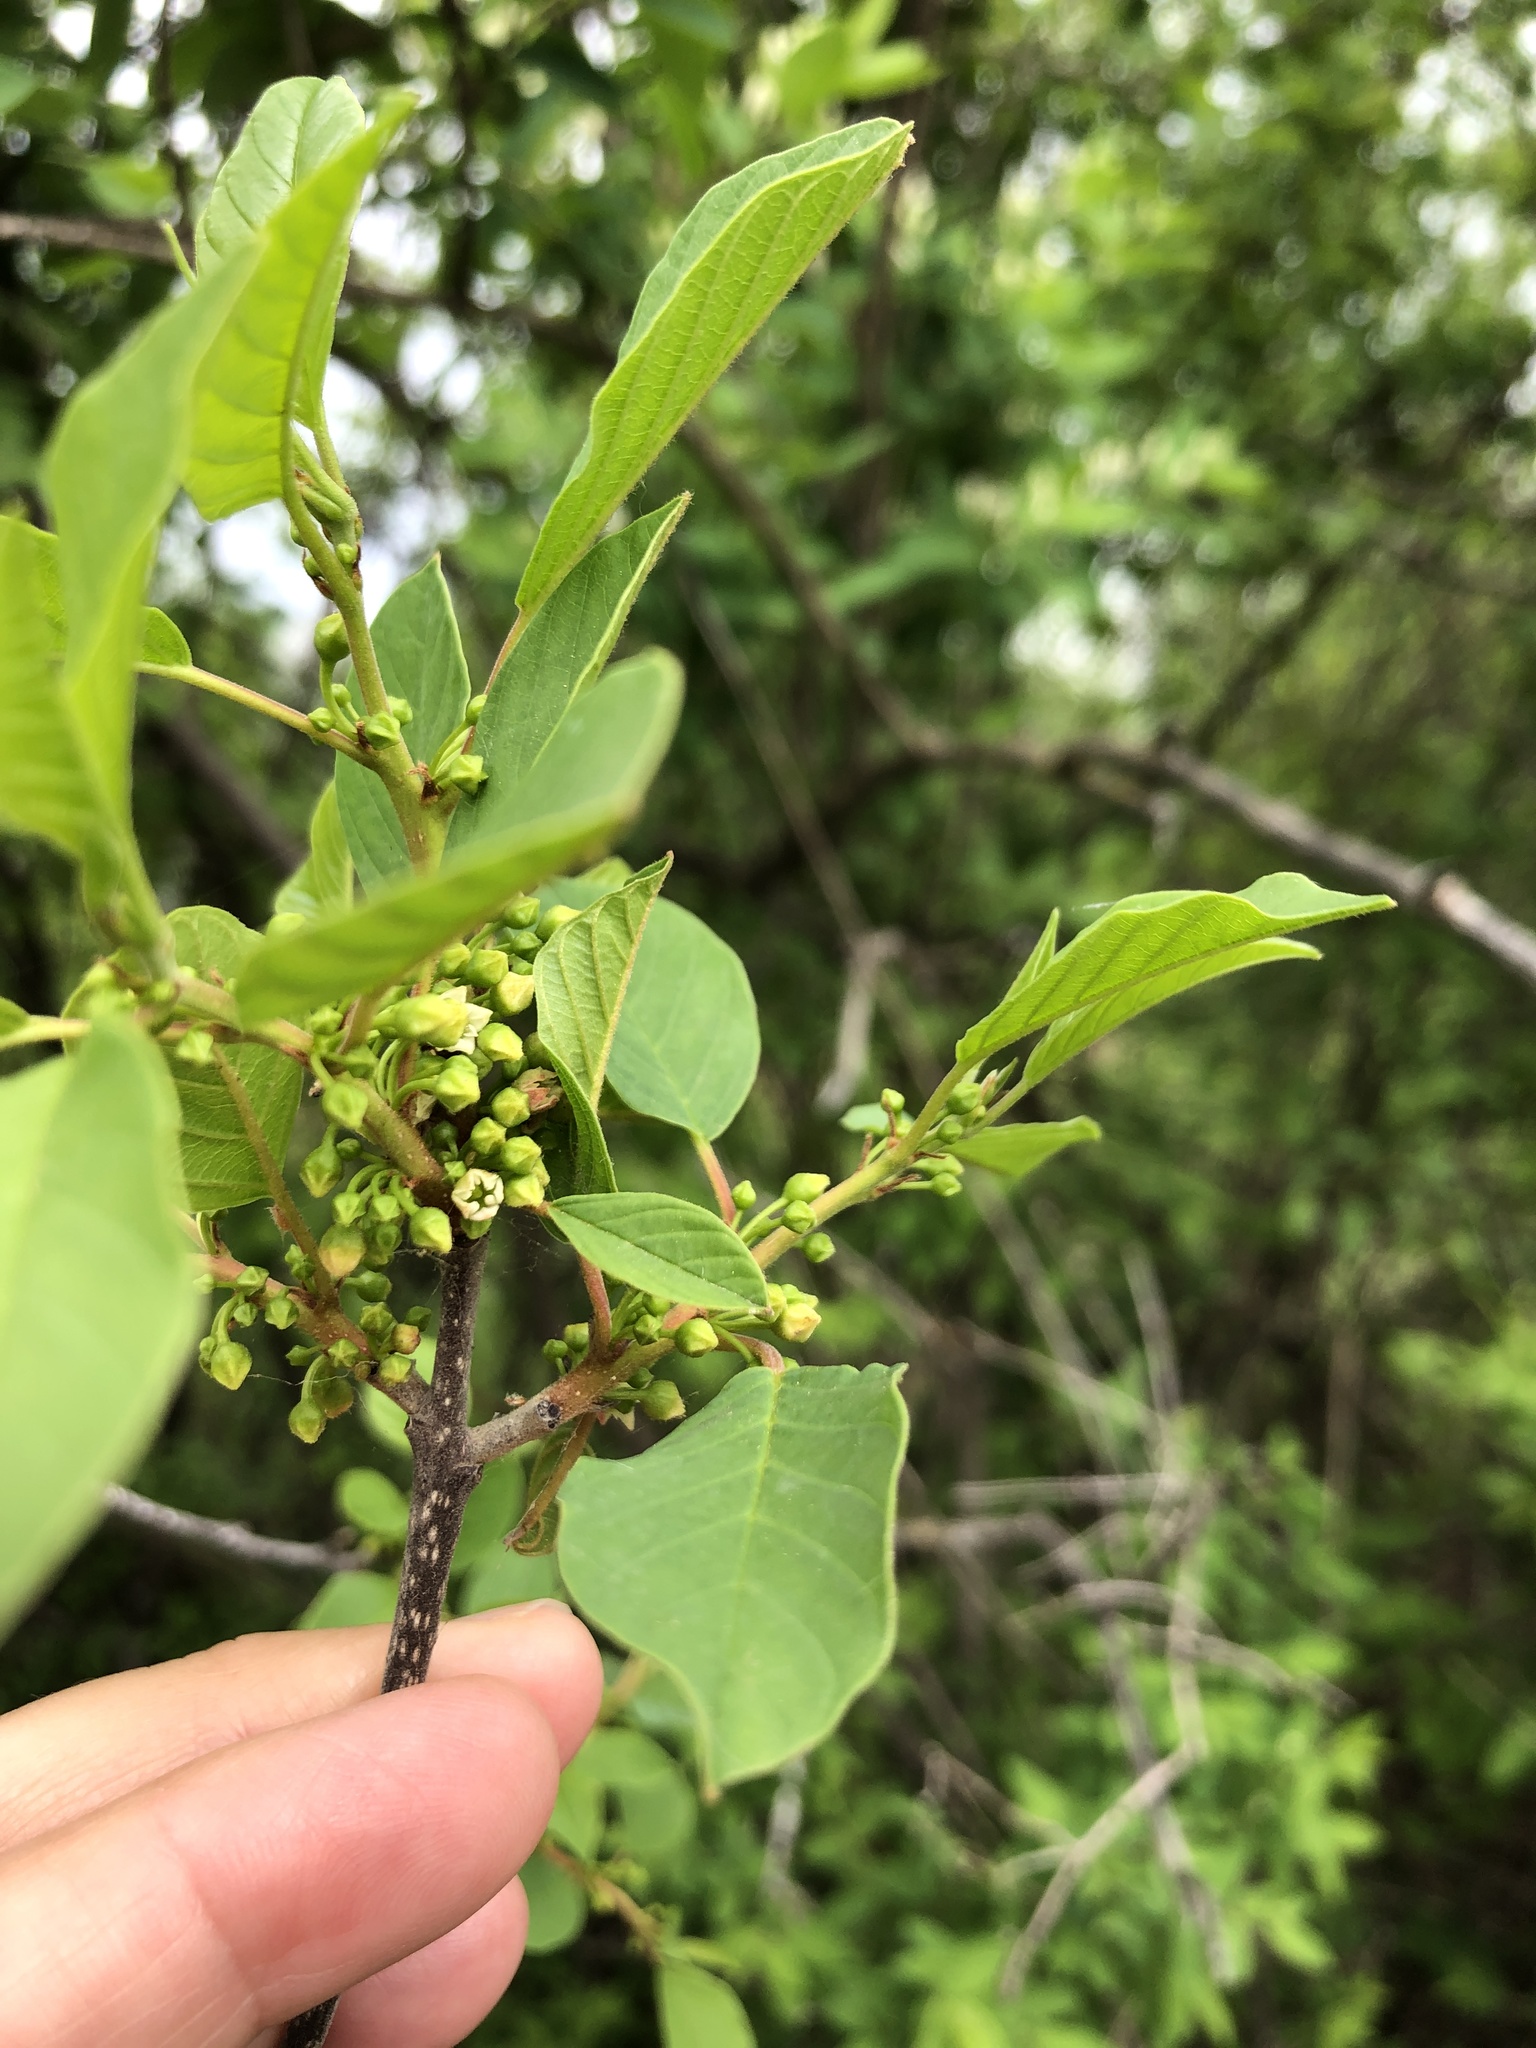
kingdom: Plantae
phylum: Tracheophyta
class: Magnoliopsida
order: Rosales
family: Rhamnaceae
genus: Frangula
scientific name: Frangula alnus
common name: Alder buckthorn
